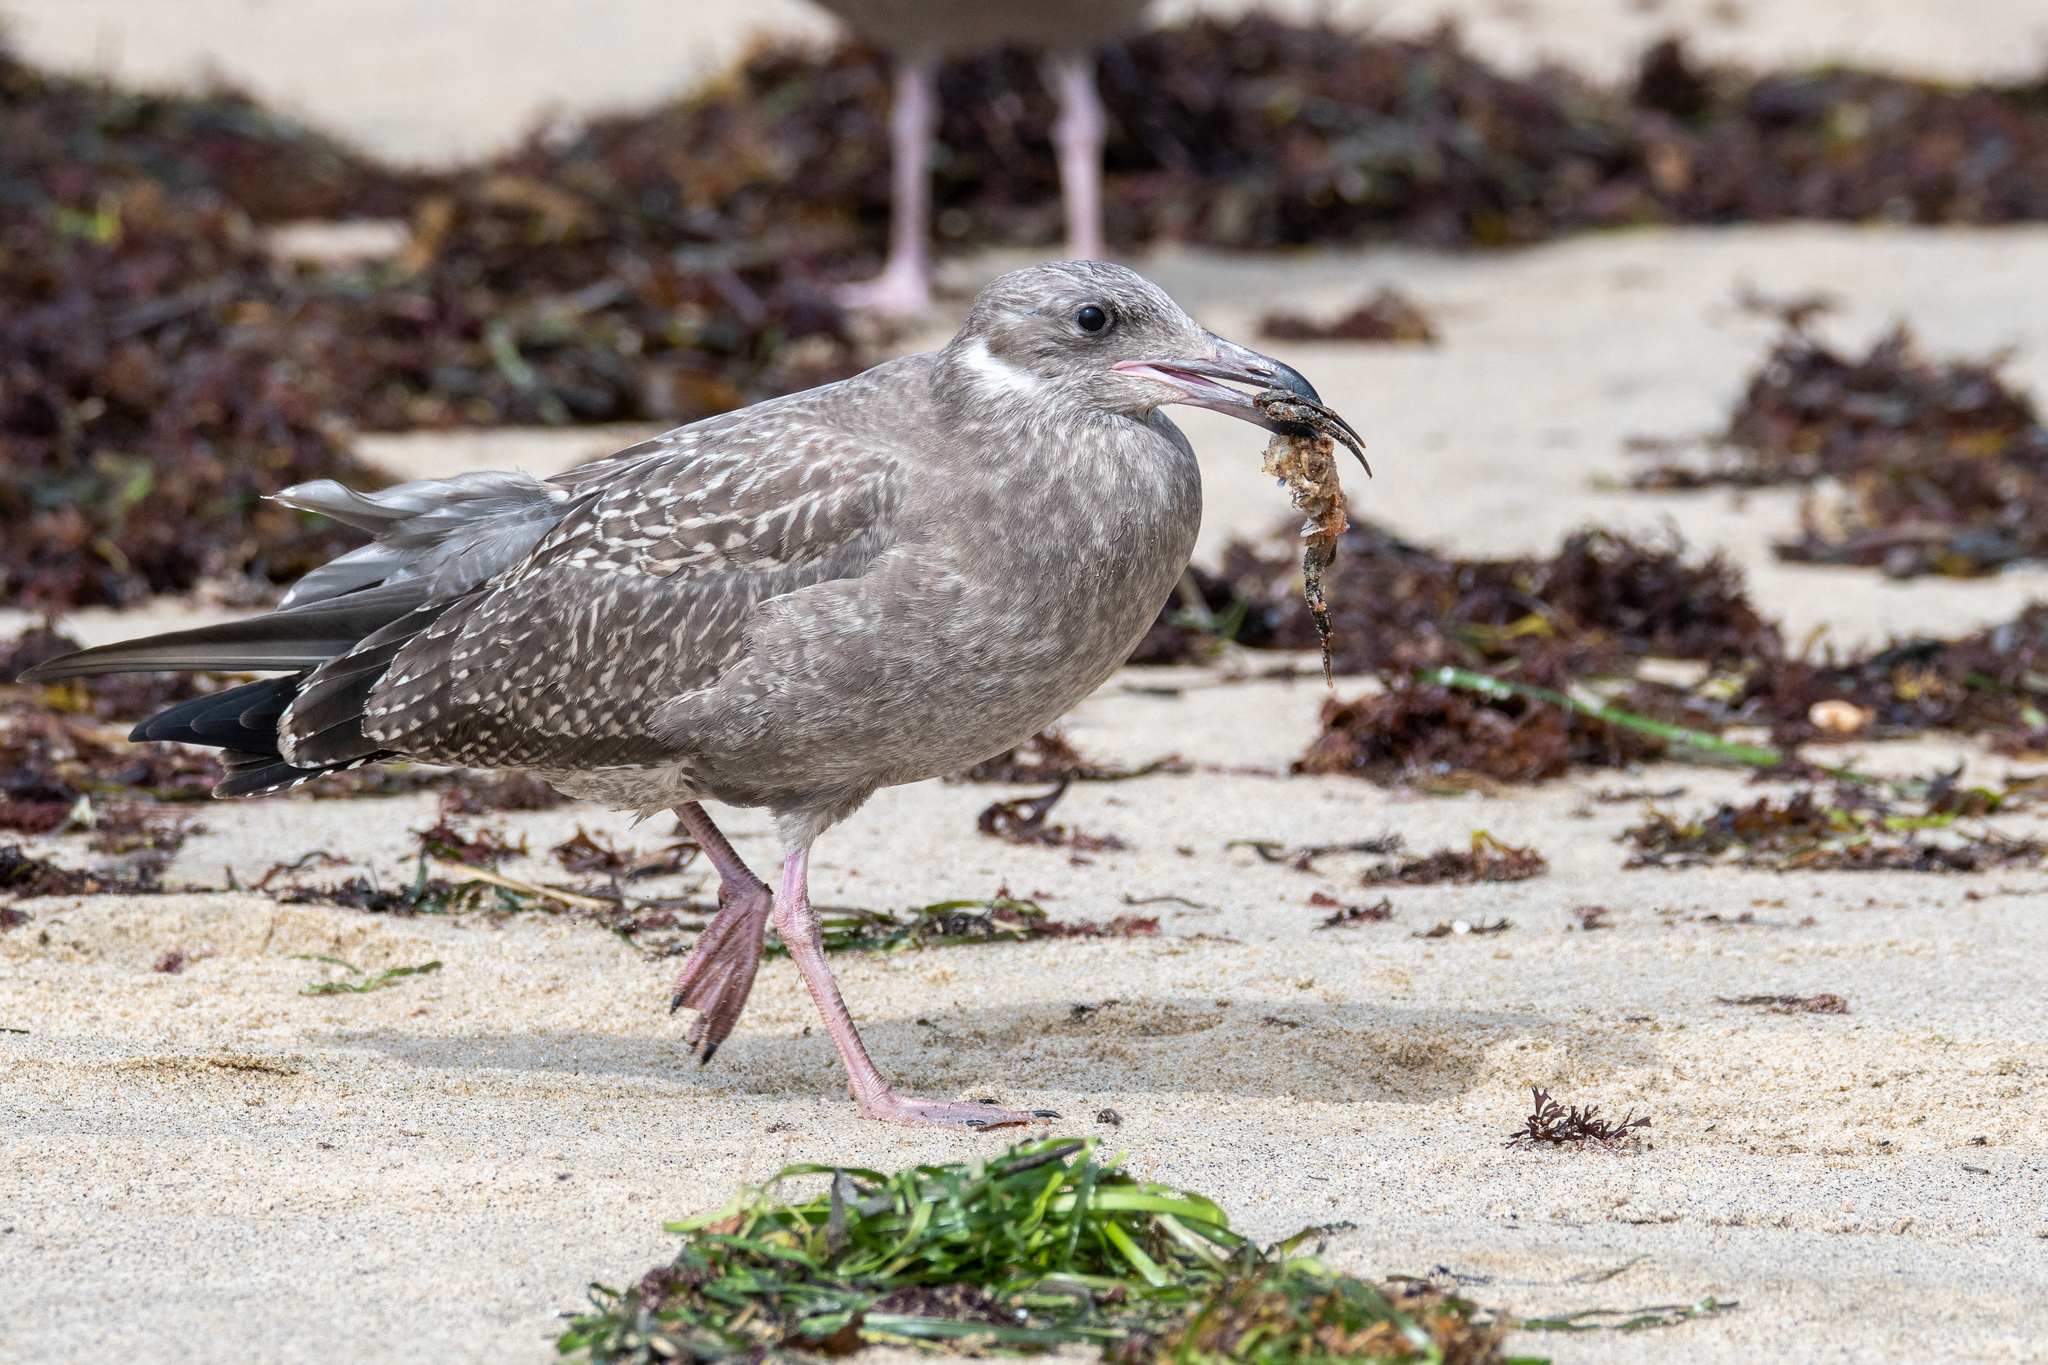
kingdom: Animalia
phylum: Arthropoda
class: Malacostraca
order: Decapoda
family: Carcinidae
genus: Carcinus
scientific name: Carcinus maenas
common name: European green crab
